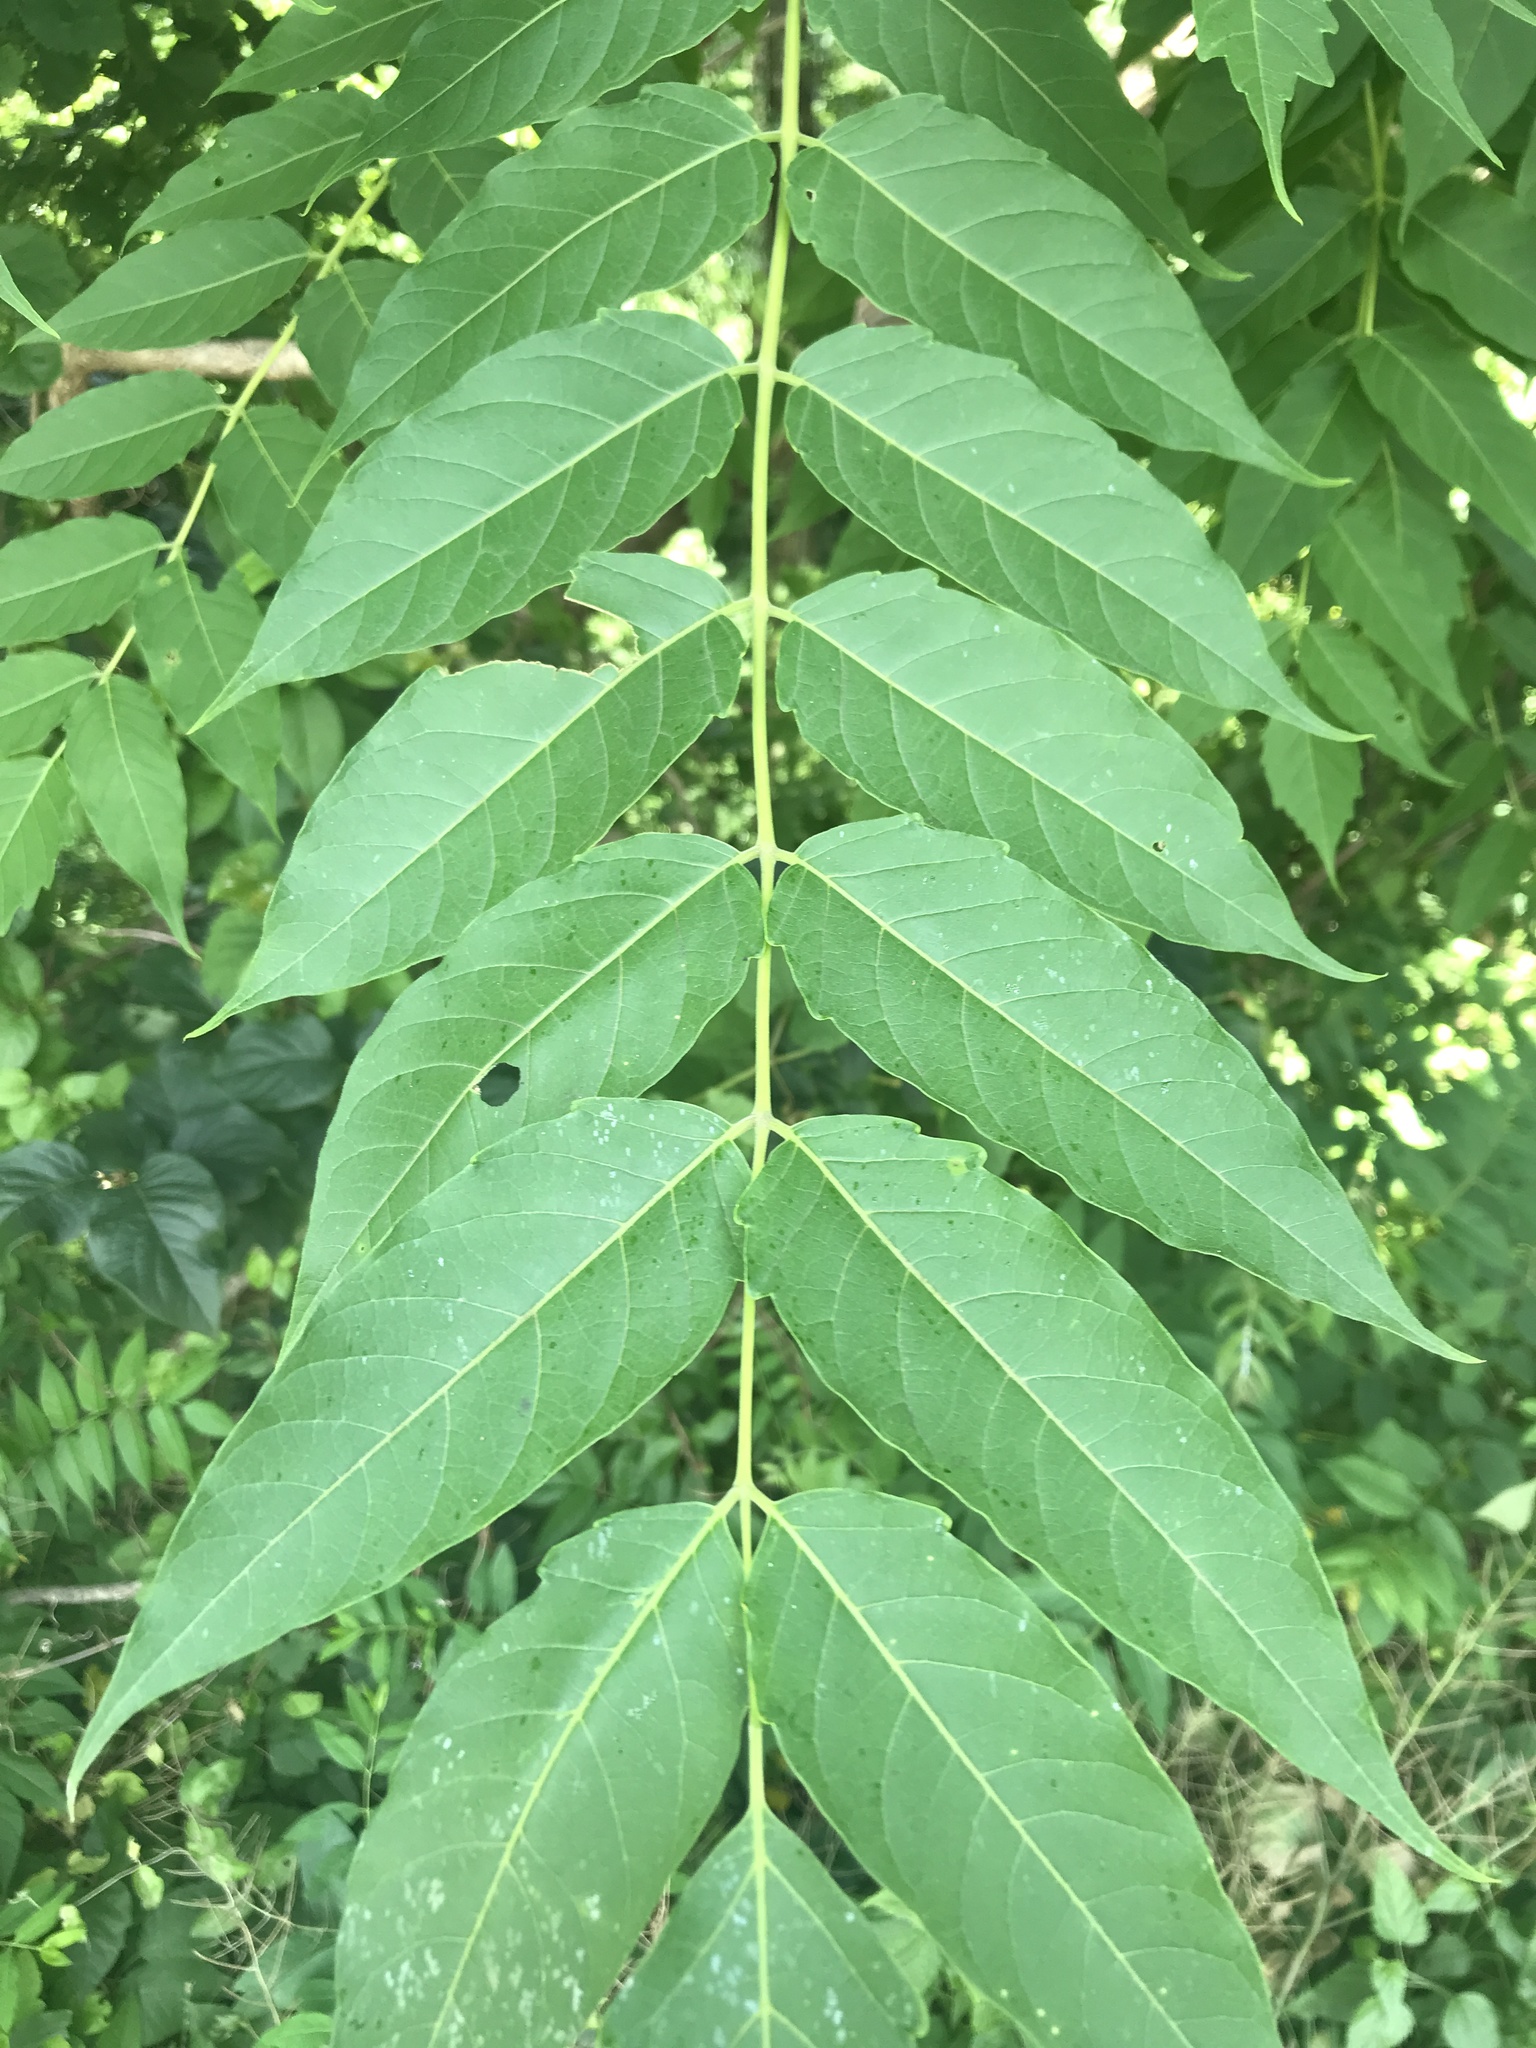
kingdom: Plantae
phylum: Tracheophyta
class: Magnoliopsida
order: Sapindales
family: Simaroubaceae
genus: Ailanthus
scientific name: Ailanthus altissima
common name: Tree-of-heaven
